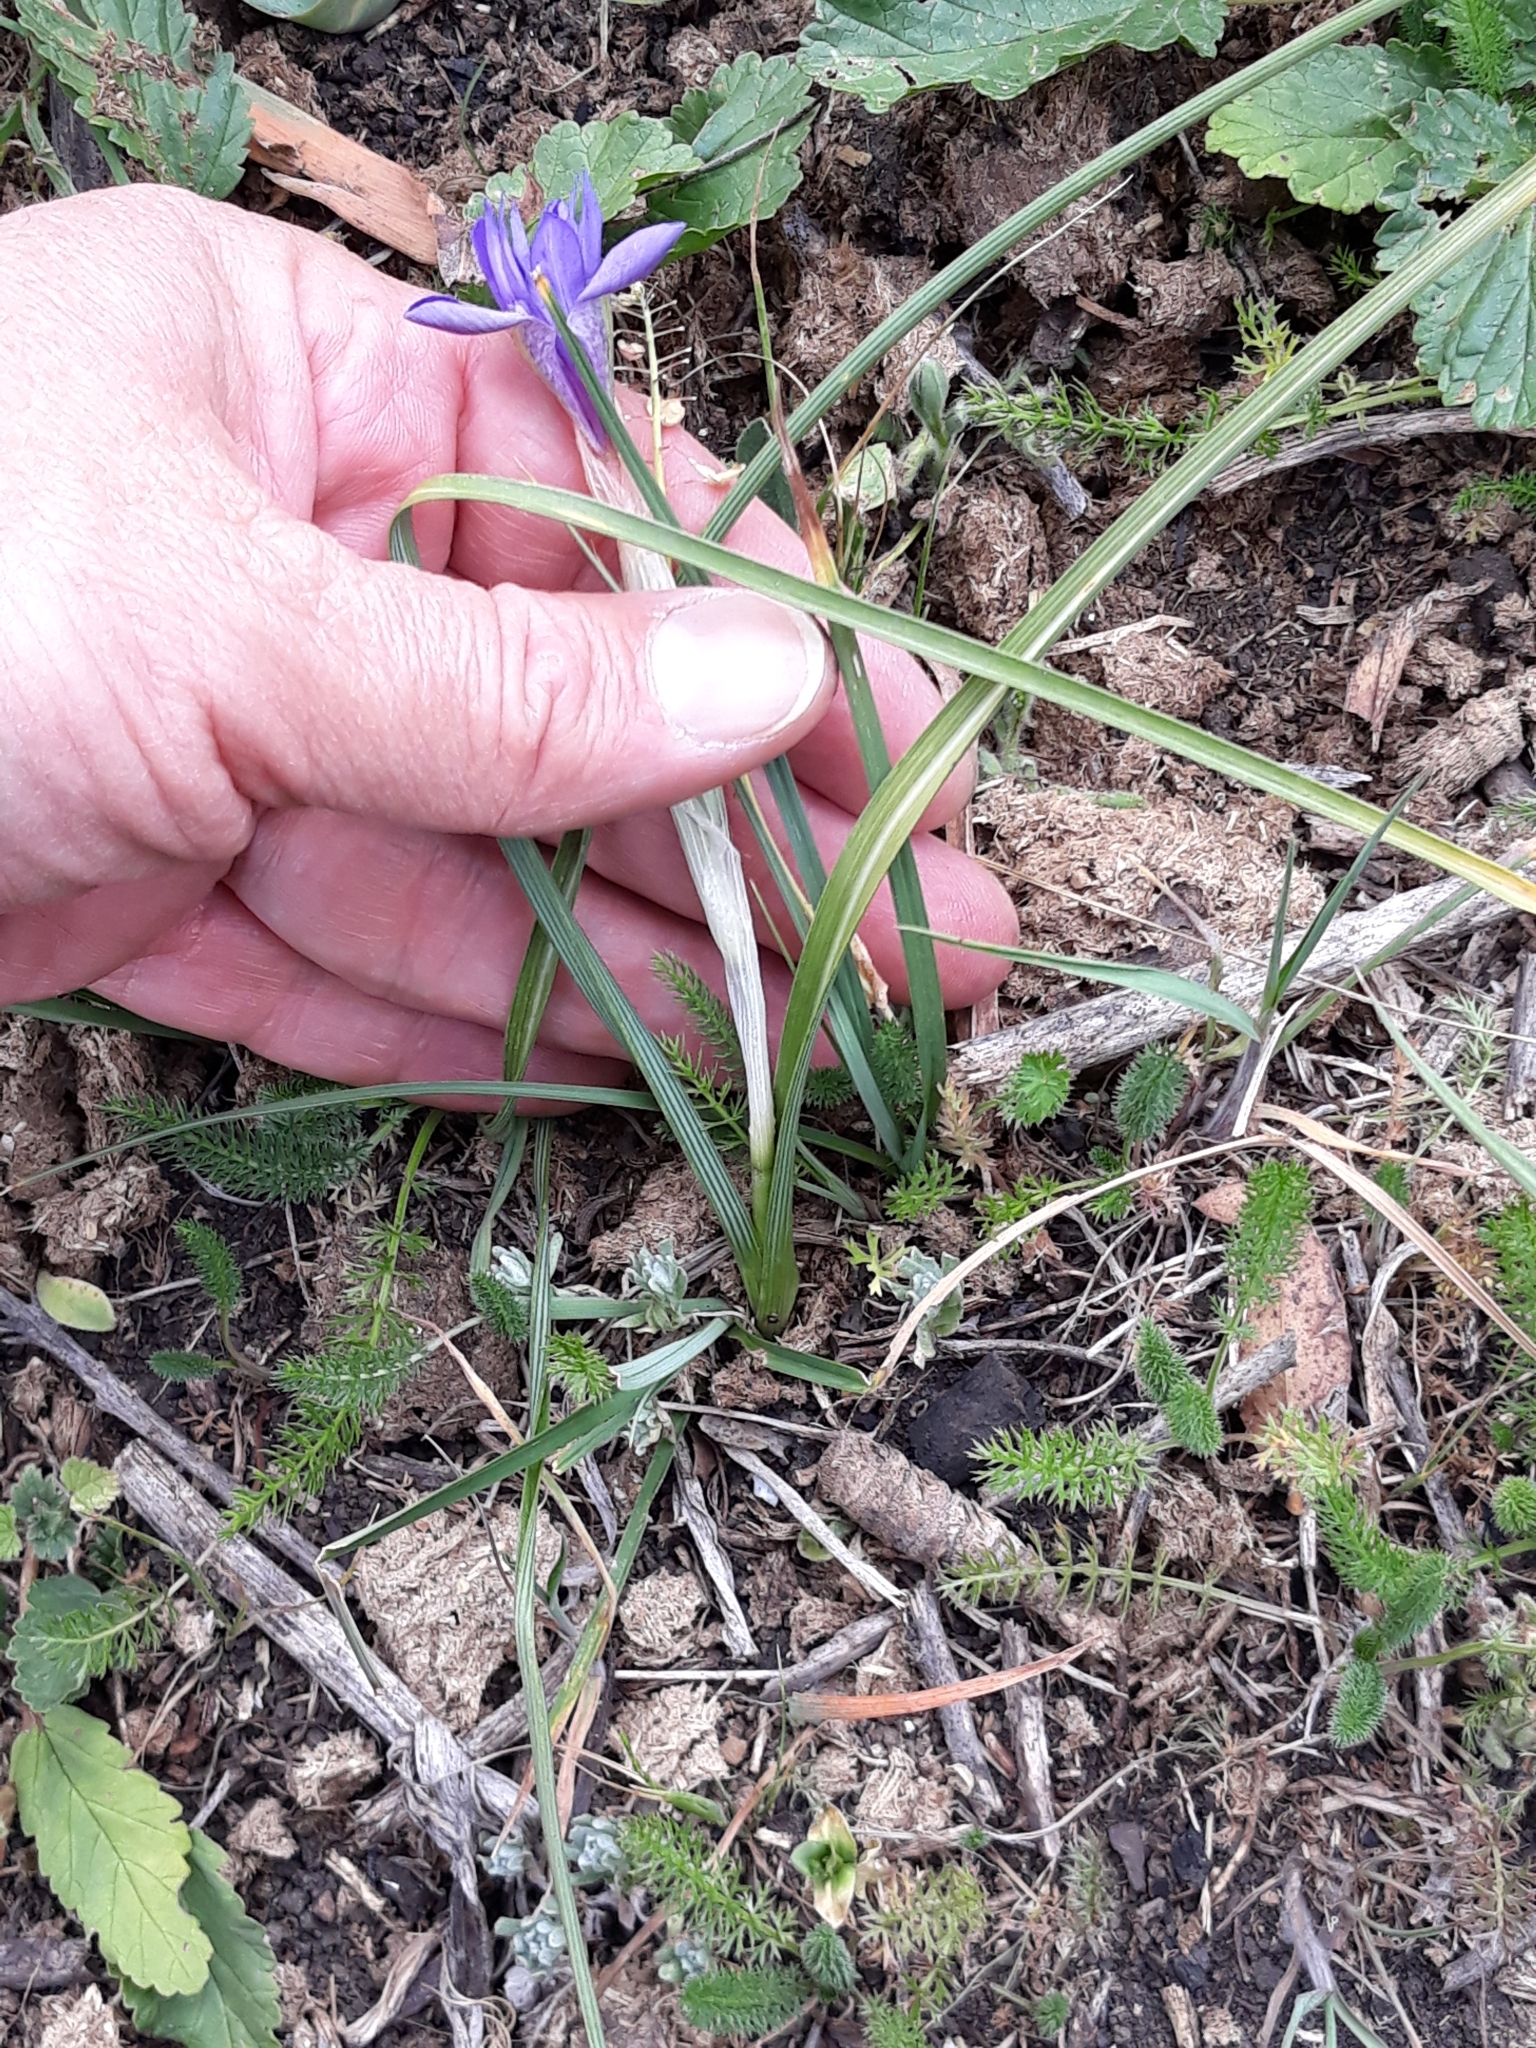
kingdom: Plantae
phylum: Tracheophyta
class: Liliopsida
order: Asparagales
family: Iridaceae
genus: Moraea
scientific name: Moraea sisyrinchium
